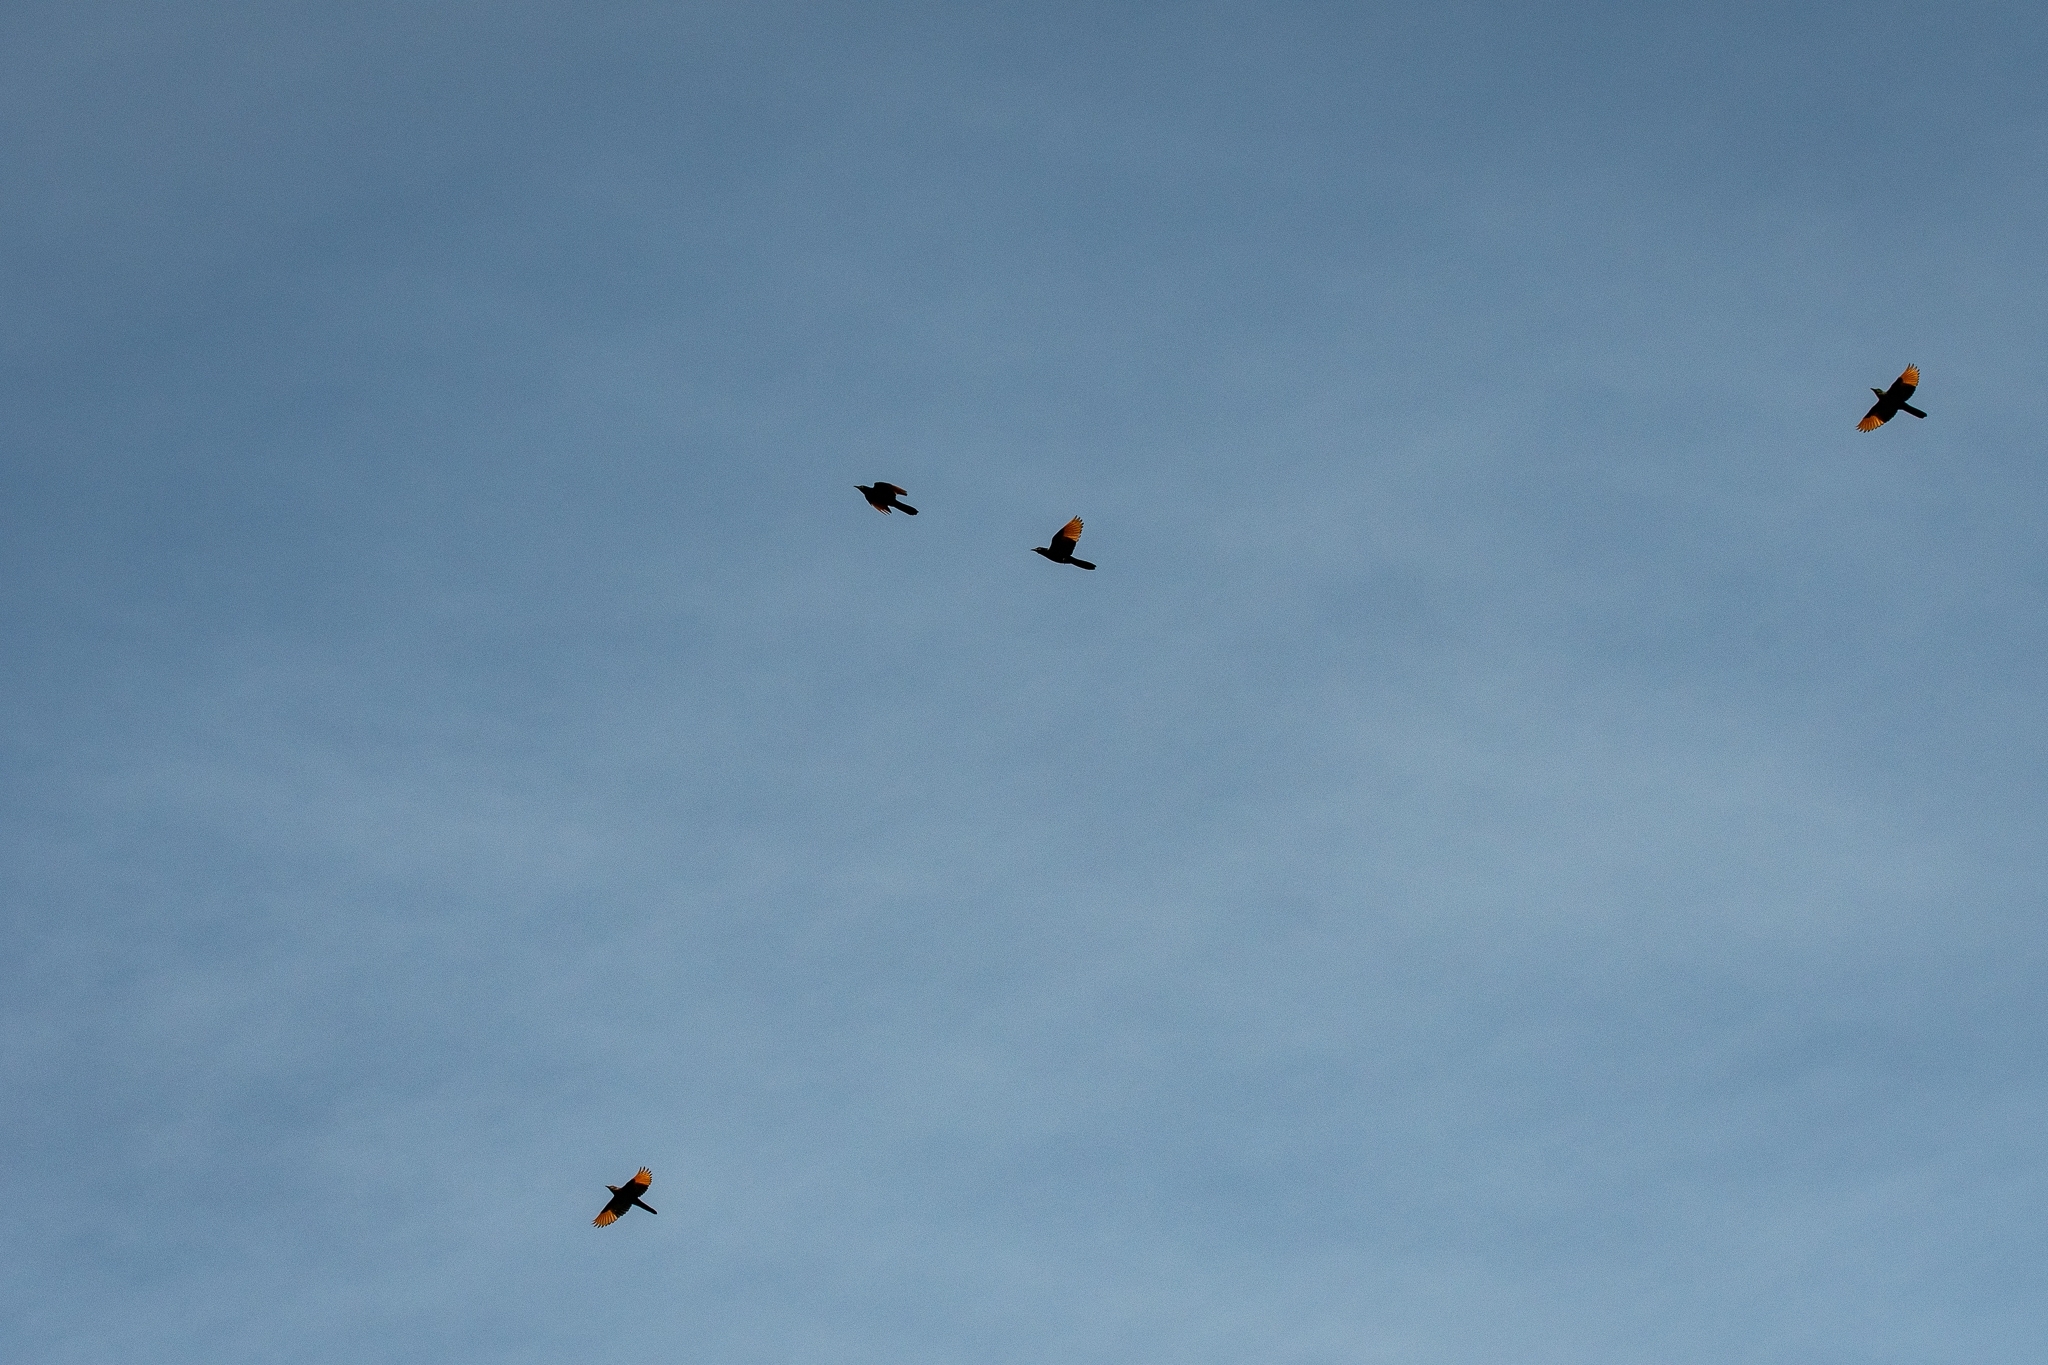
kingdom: Animalia
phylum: Chordata
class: Aves
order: Passeriformes
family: Sturnidae
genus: Onychognathus
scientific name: Onychognathus morio
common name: Red-winged starling
